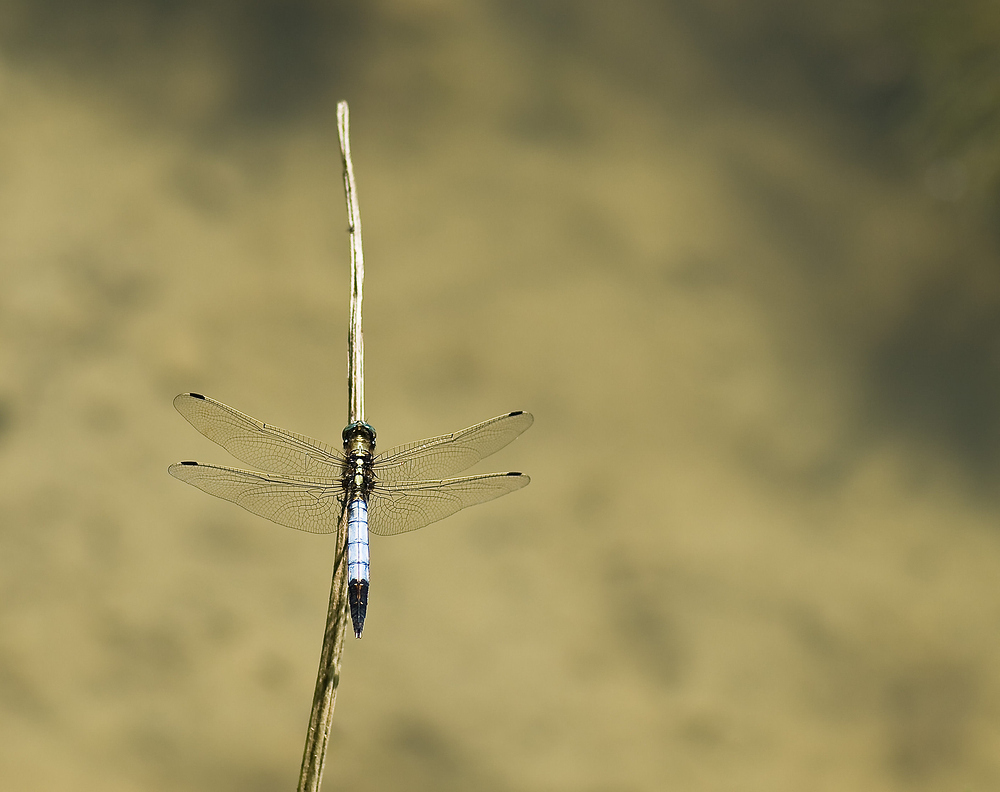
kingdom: Animalia
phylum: Arthropoda
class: Insecta
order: Odonata
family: Libellulidae
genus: Orthetrum
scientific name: Orthetrum albistylum
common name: White-tailed skimmer
